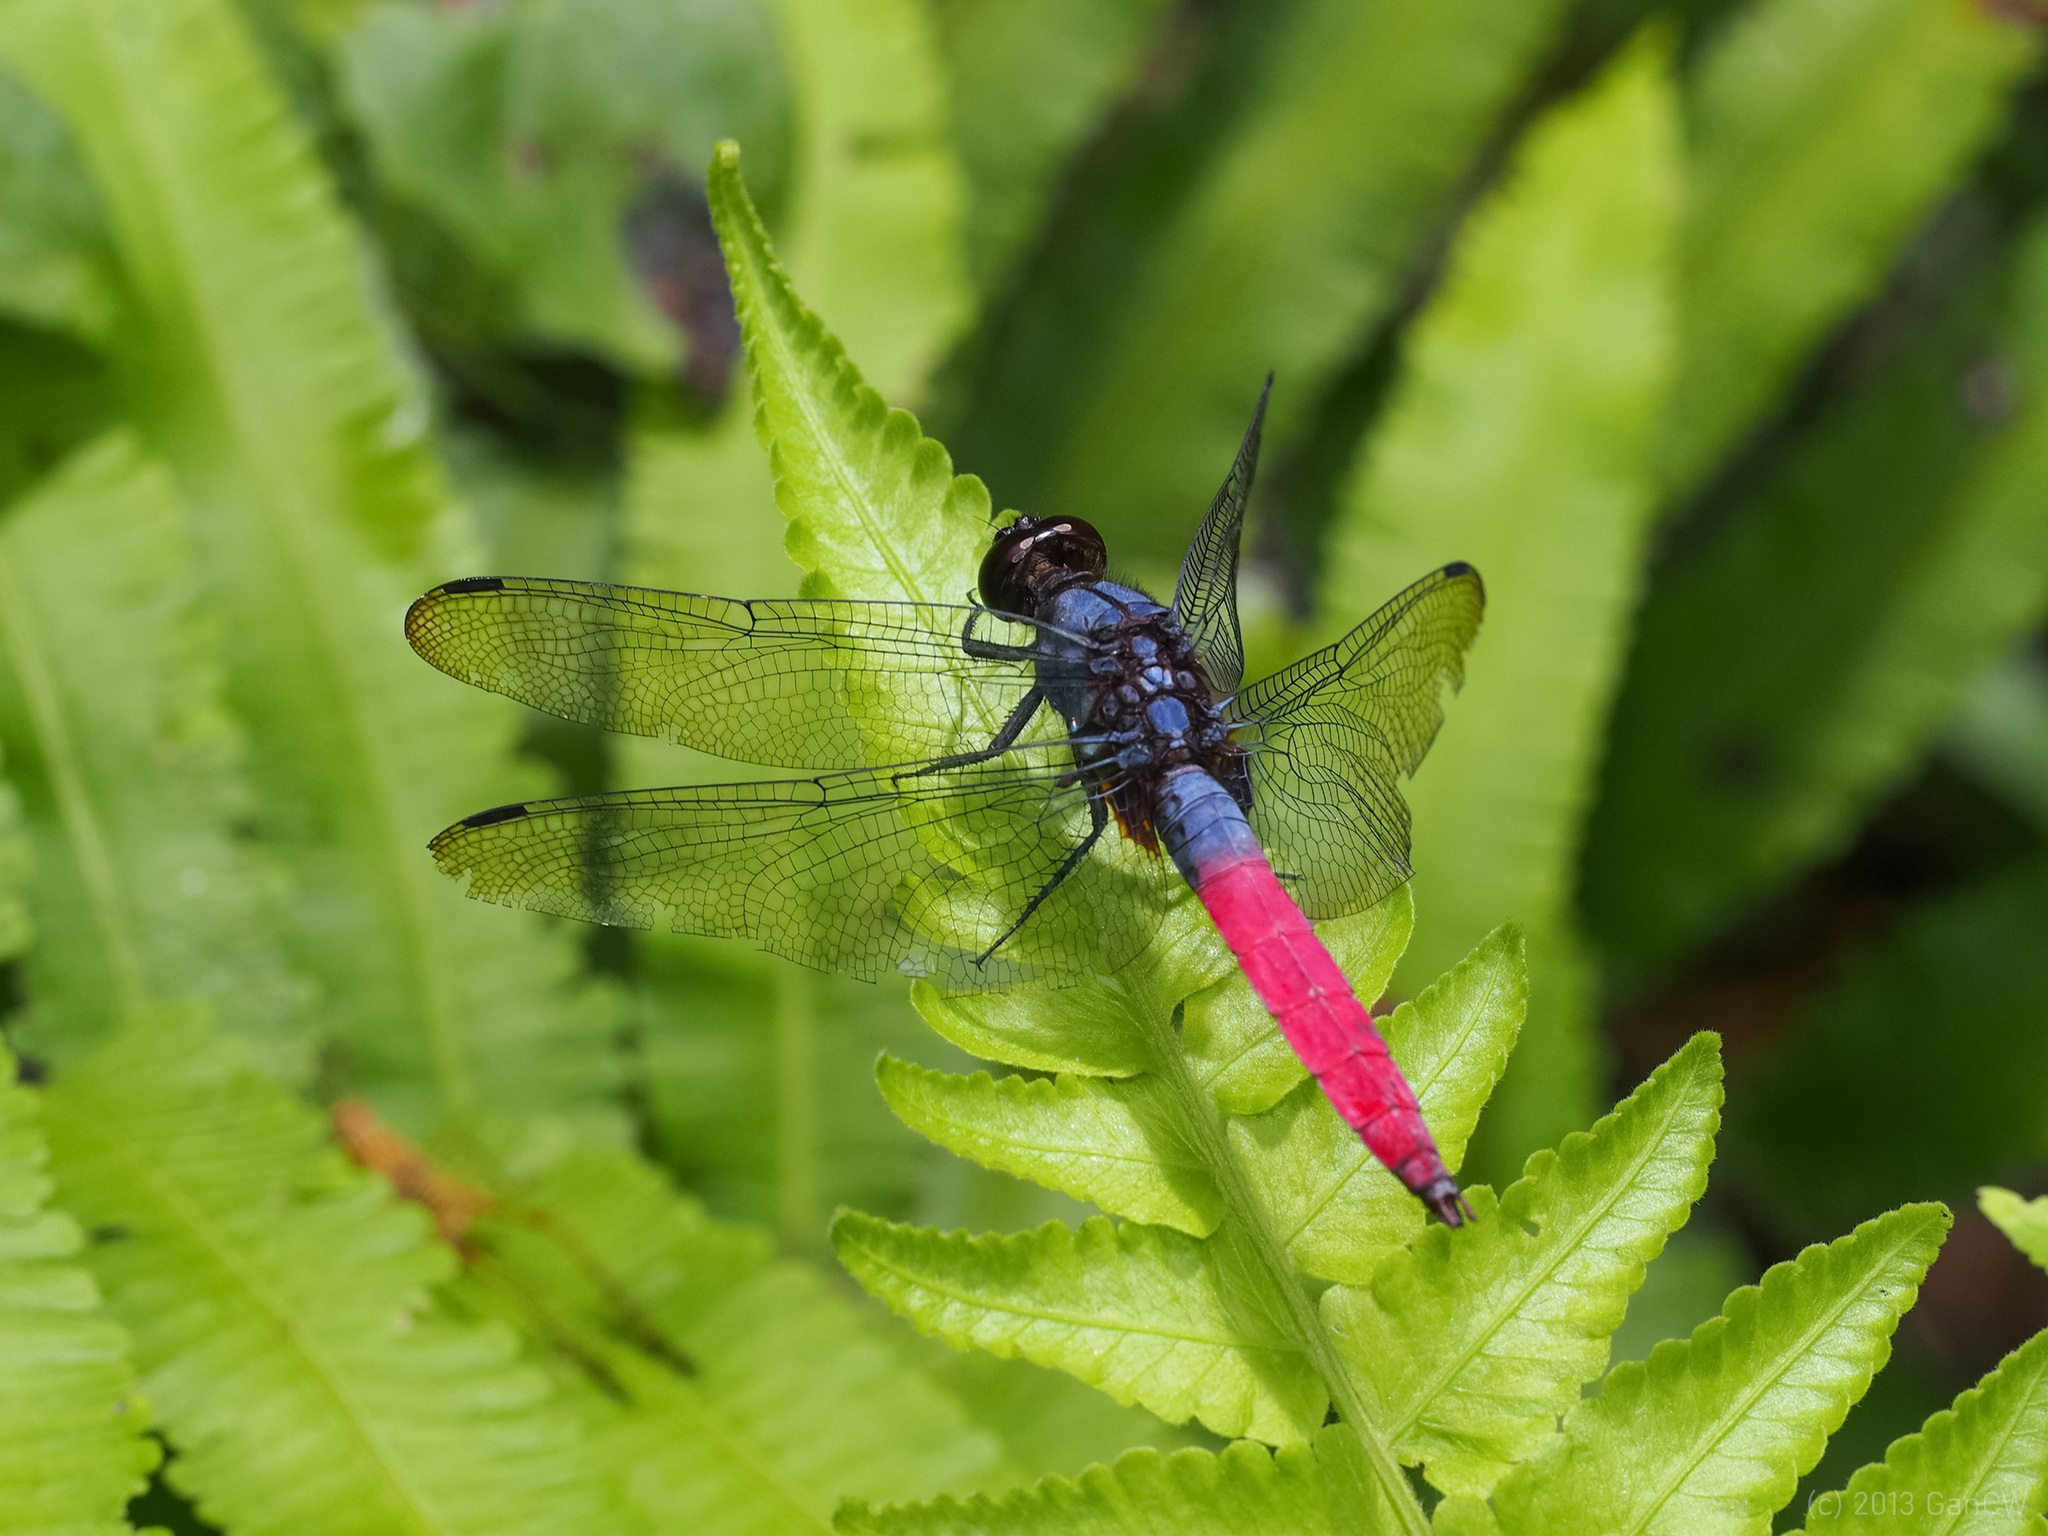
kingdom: Animalia
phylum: Arthropoda
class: Insecta
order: Odonata
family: Libellulidae
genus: Orthetrum
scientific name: Orthetrum schneideri
